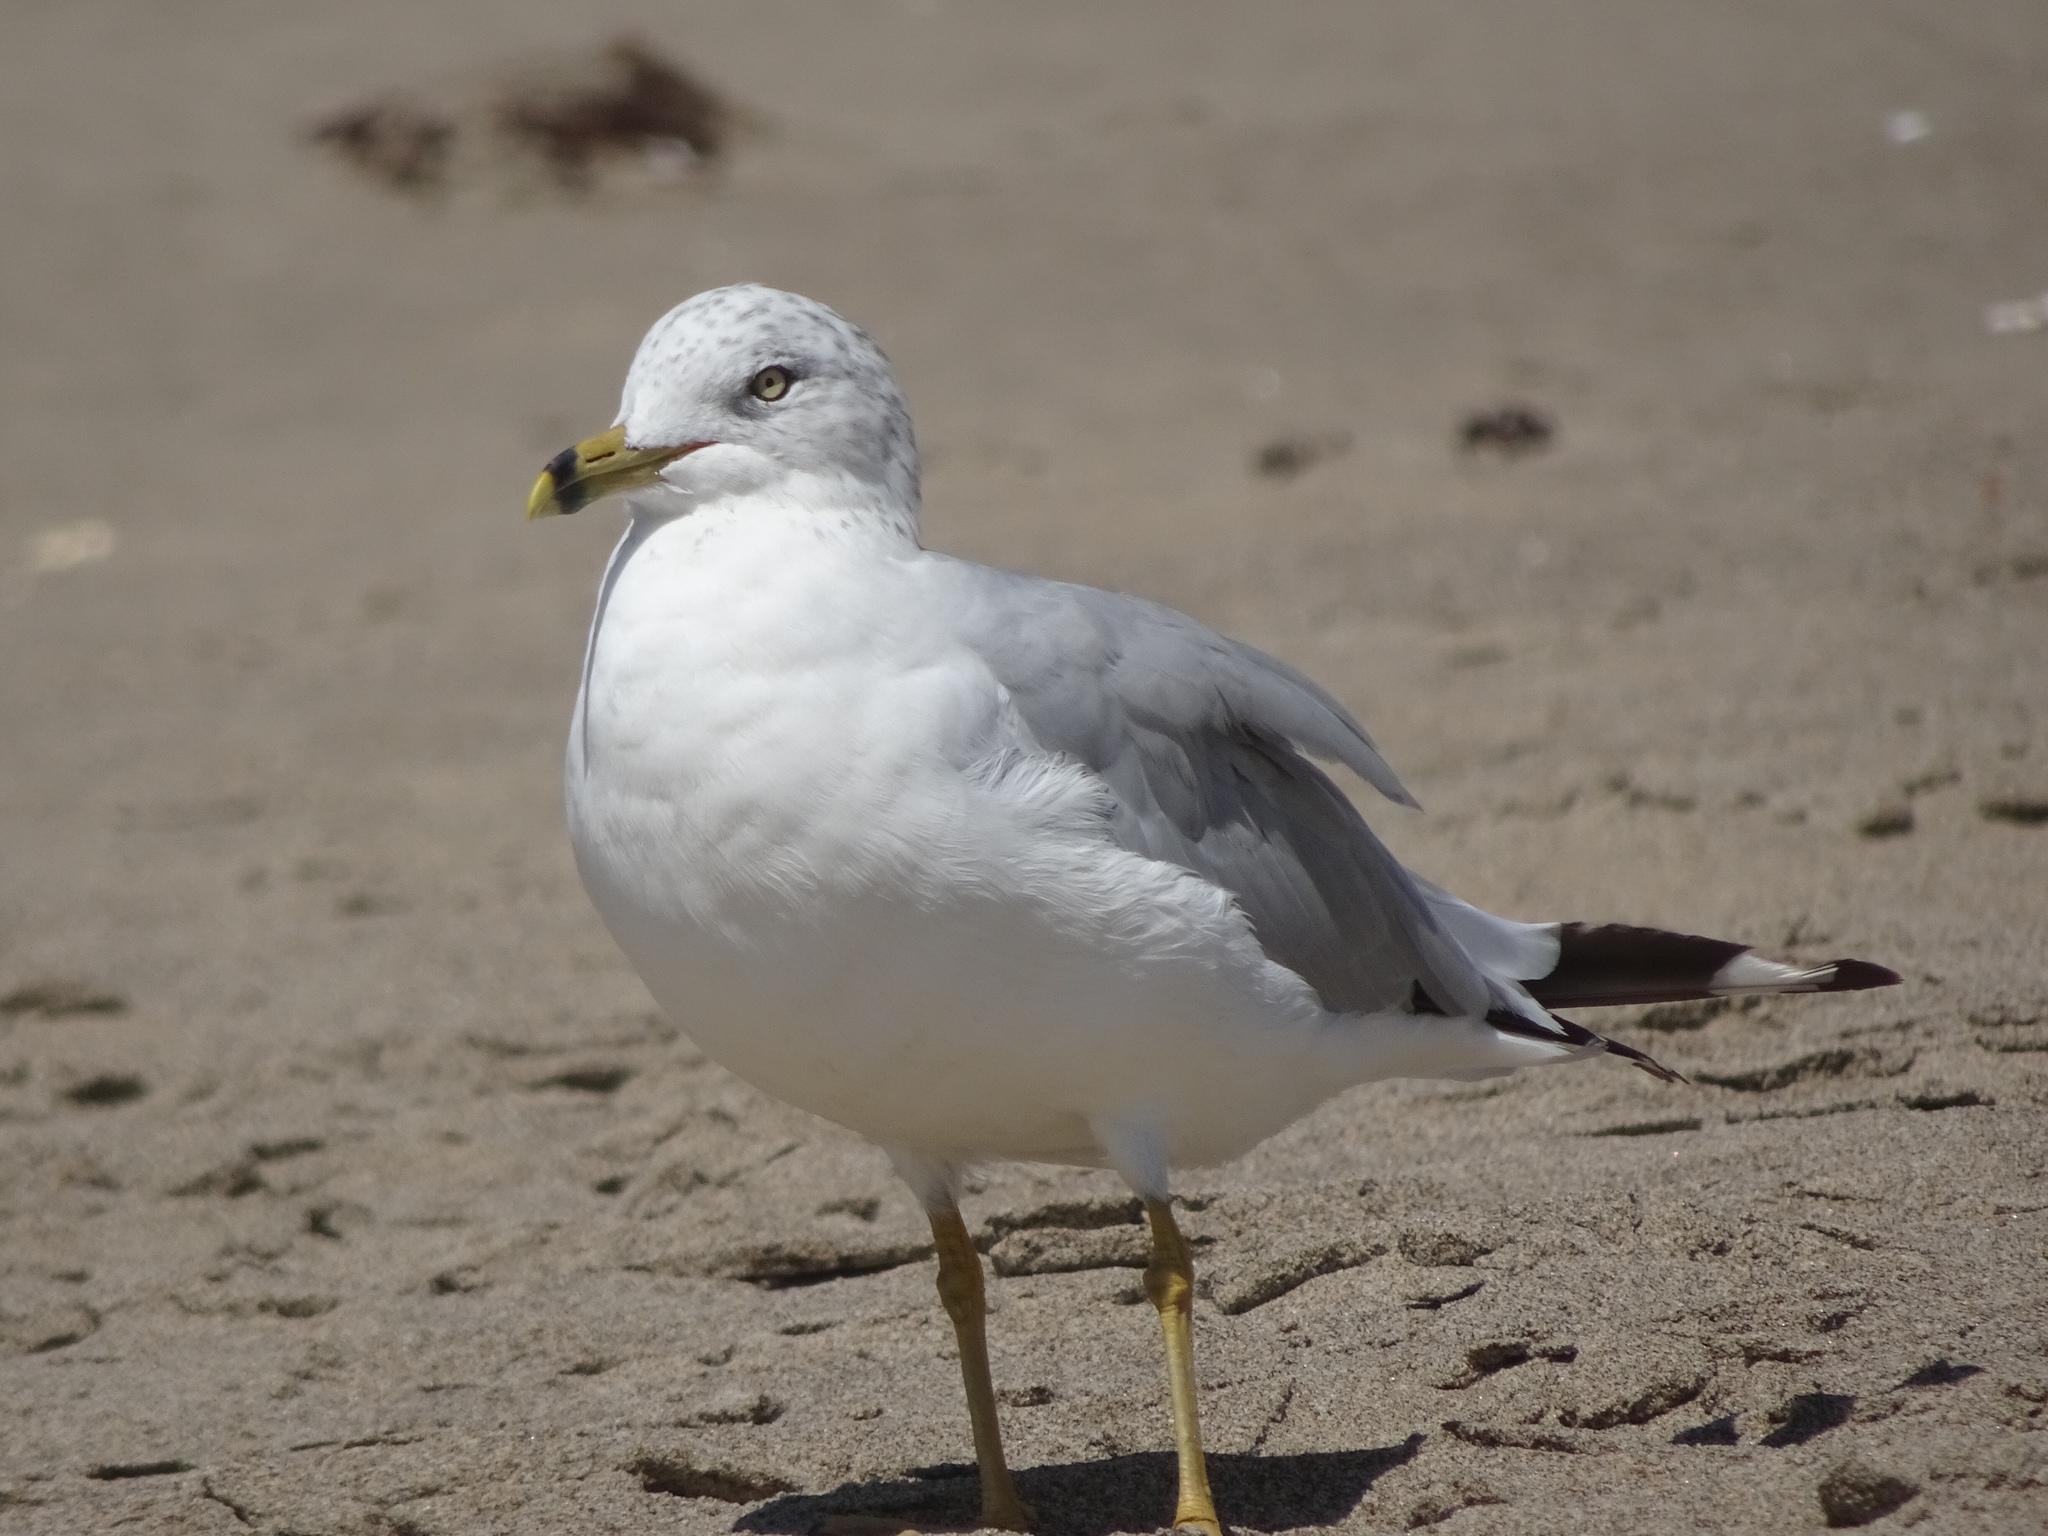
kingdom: Animalia
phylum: Chordata
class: Aves
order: Charadriiformes
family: Laridae
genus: Larus
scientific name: Larus delawarensis
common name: Ring-billed gull
